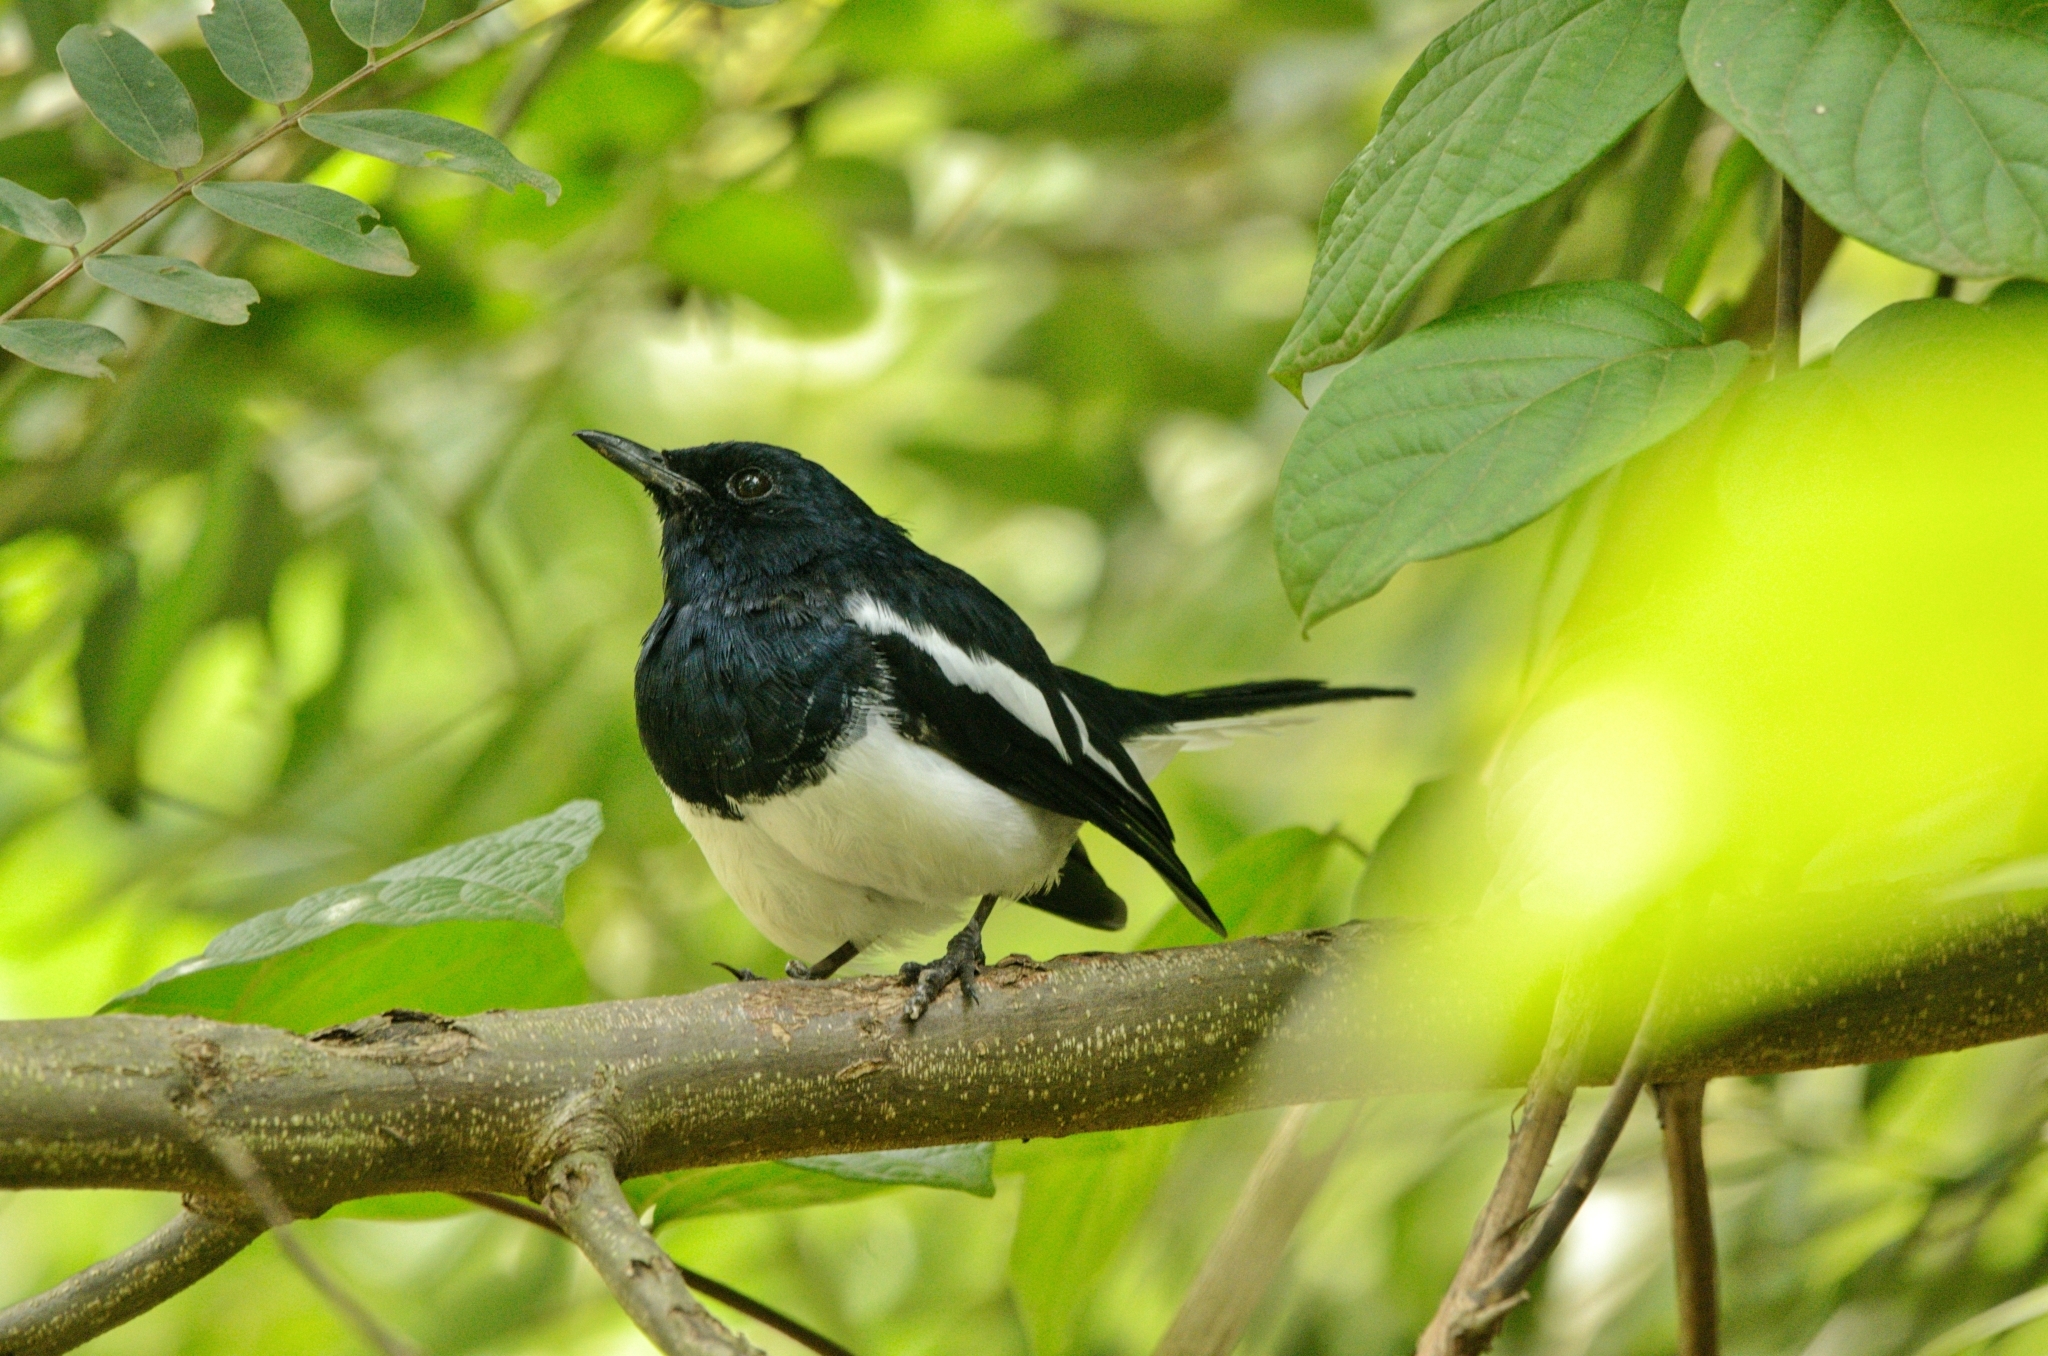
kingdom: Animalia
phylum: Chordata
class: Aves
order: Passeriformes
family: Muscicapidae
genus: Copsychus
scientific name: Copsychus saularis
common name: Oriental magpie-robin
